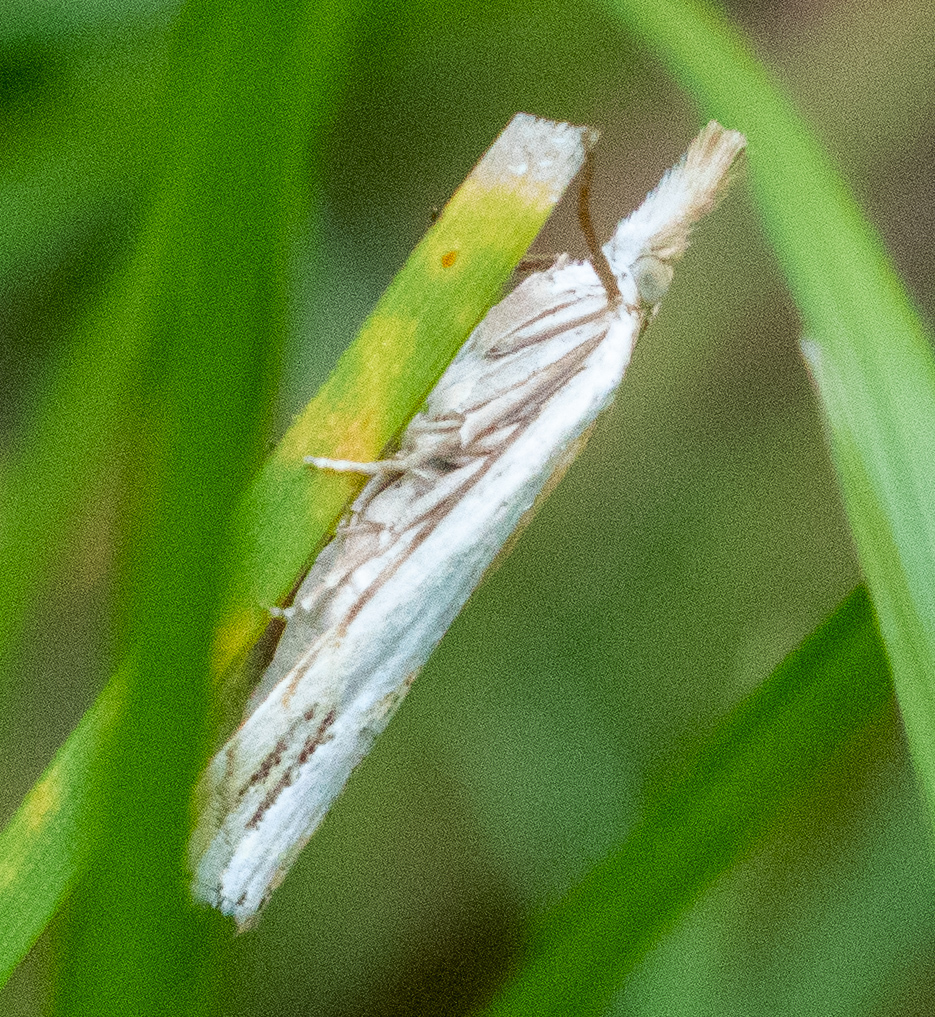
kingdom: Animalia
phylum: Arthropoda
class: Insecta
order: Lepidoptera
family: Crambidae
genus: Crambus
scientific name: Crambus
